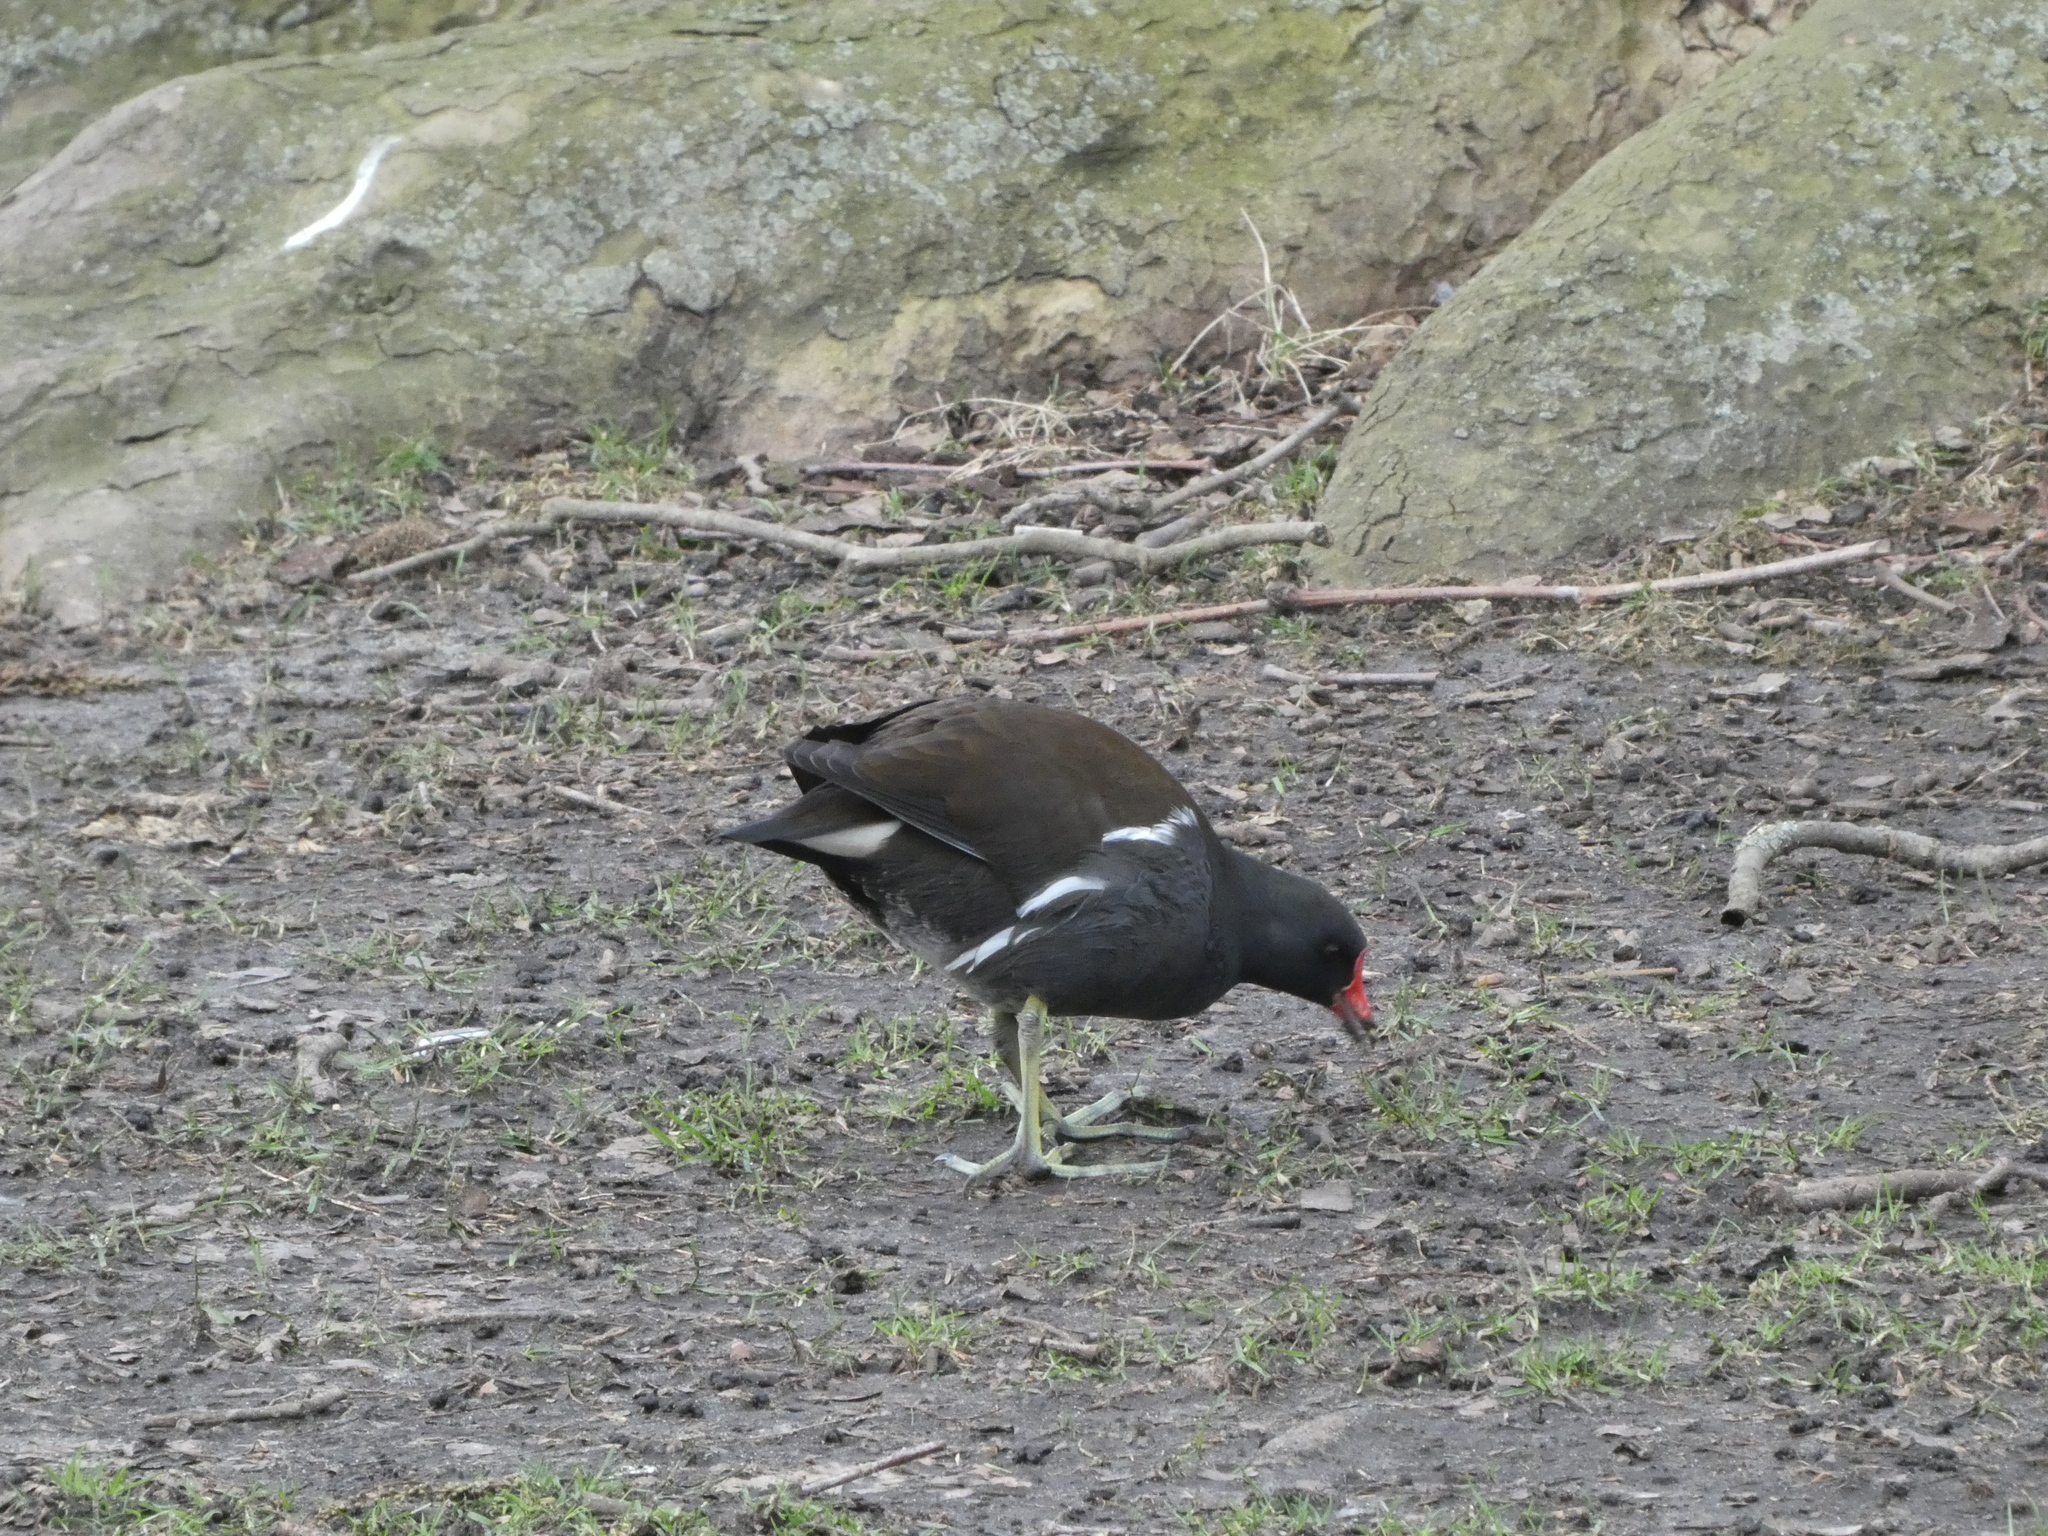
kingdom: Animalia
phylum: Chordata
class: Aves
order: Gruiformes
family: Rallidae
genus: Gallinula
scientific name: Gallinula chloropus
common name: Common moorhen
